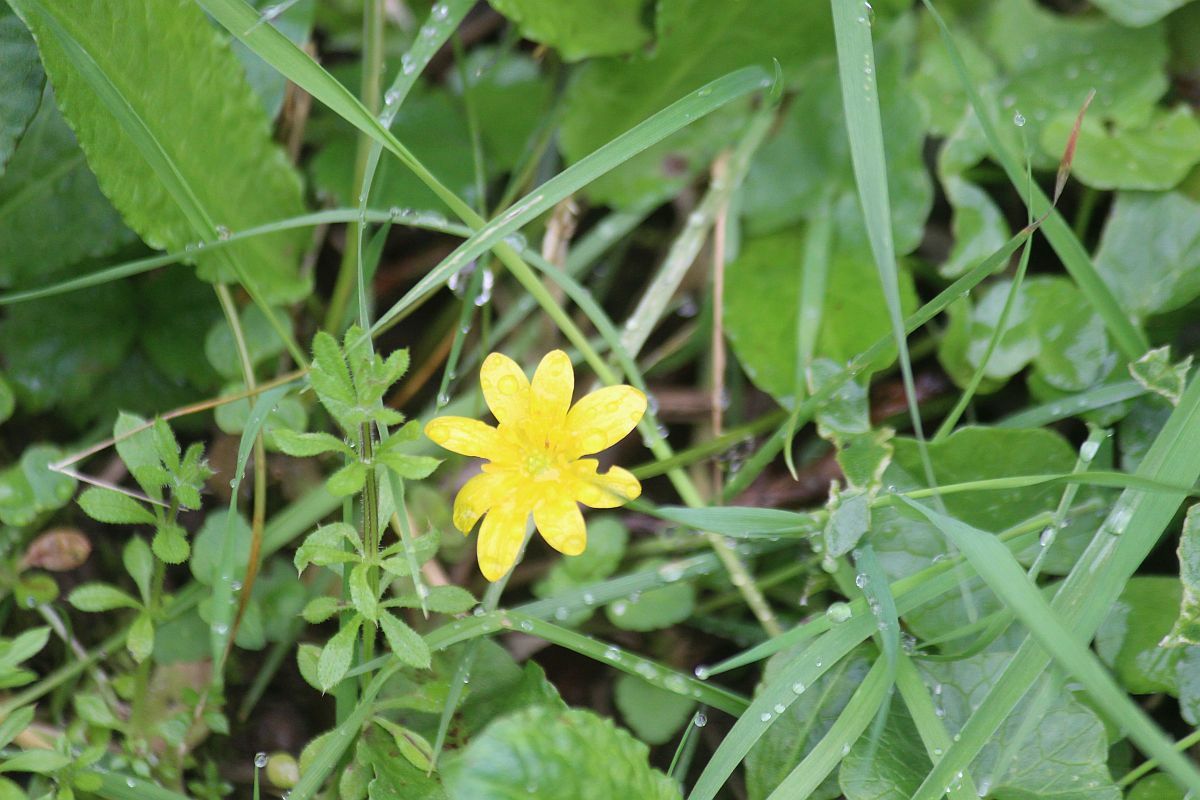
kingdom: Plantae
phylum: Tracheophyta
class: Magnoliopsida
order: Ranunculales
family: Ranunculaceae
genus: Ficaria
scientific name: Ficaria verna
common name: Lesser celandine
